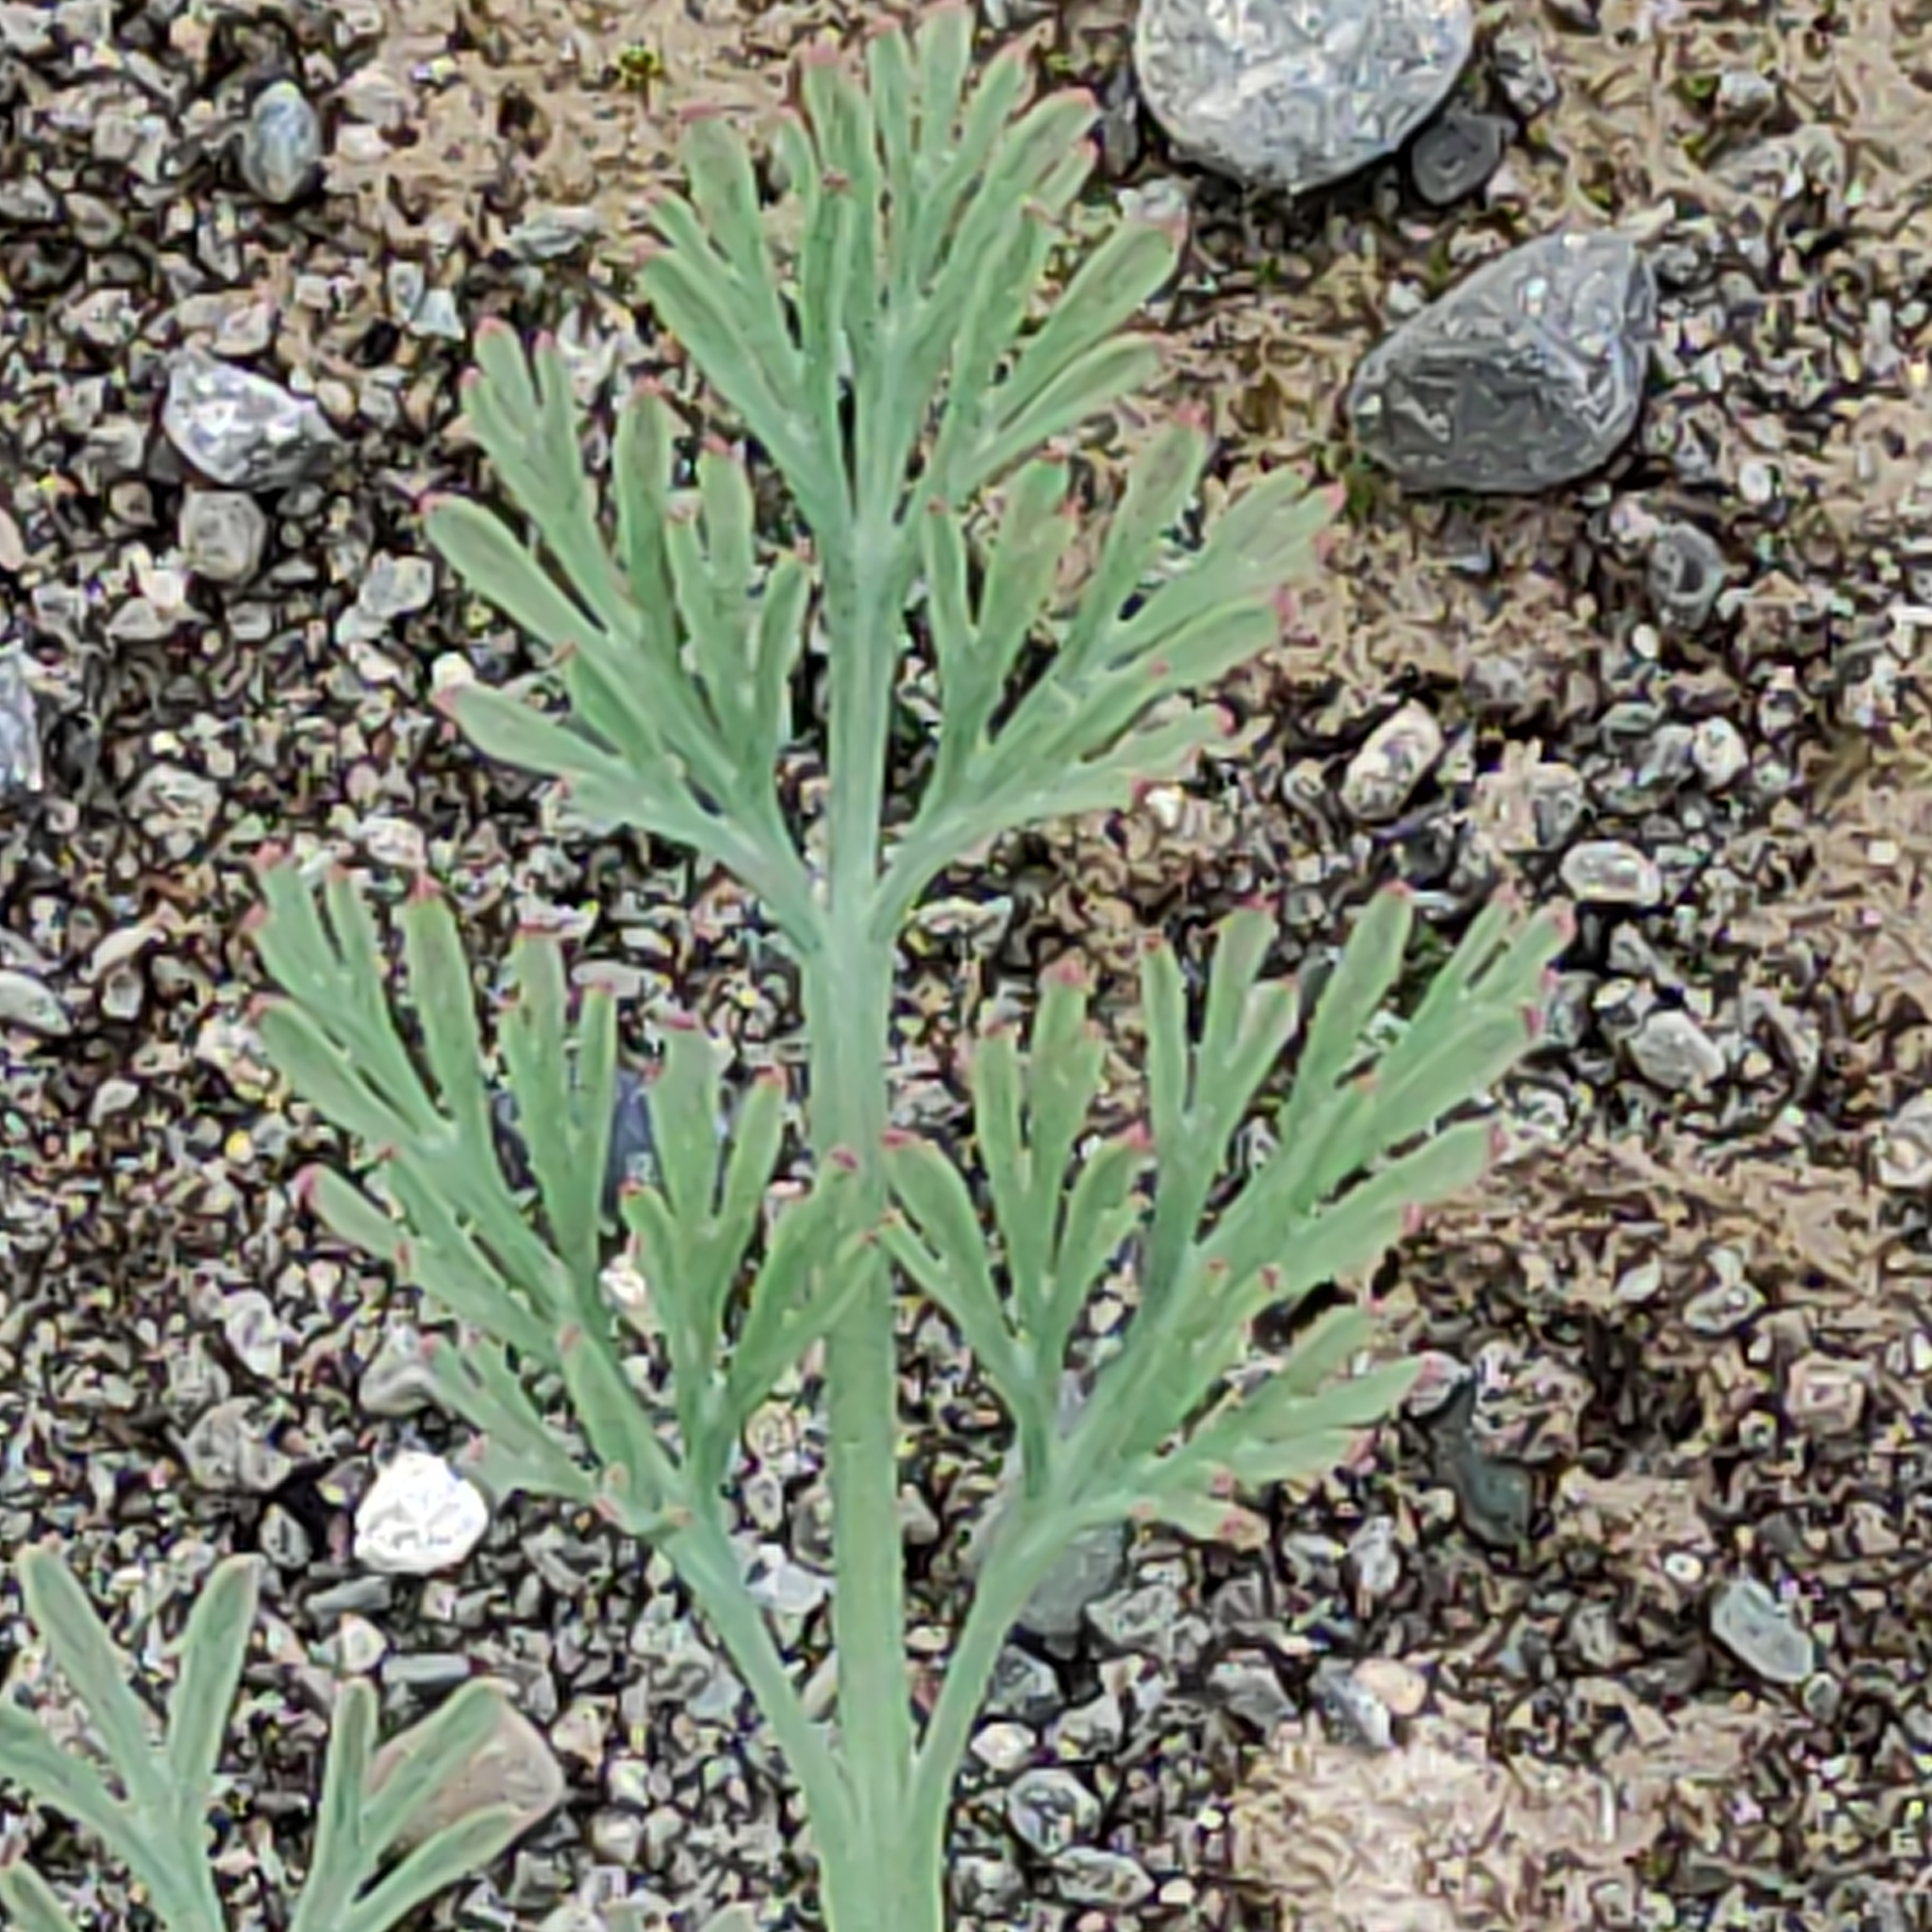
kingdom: Plantae
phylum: Tracheophyta
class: Magnoliopsida
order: Ranunculales
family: Papaveraceae
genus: Eschscholzia
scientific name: Eschscholzia californica
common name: California poppy
